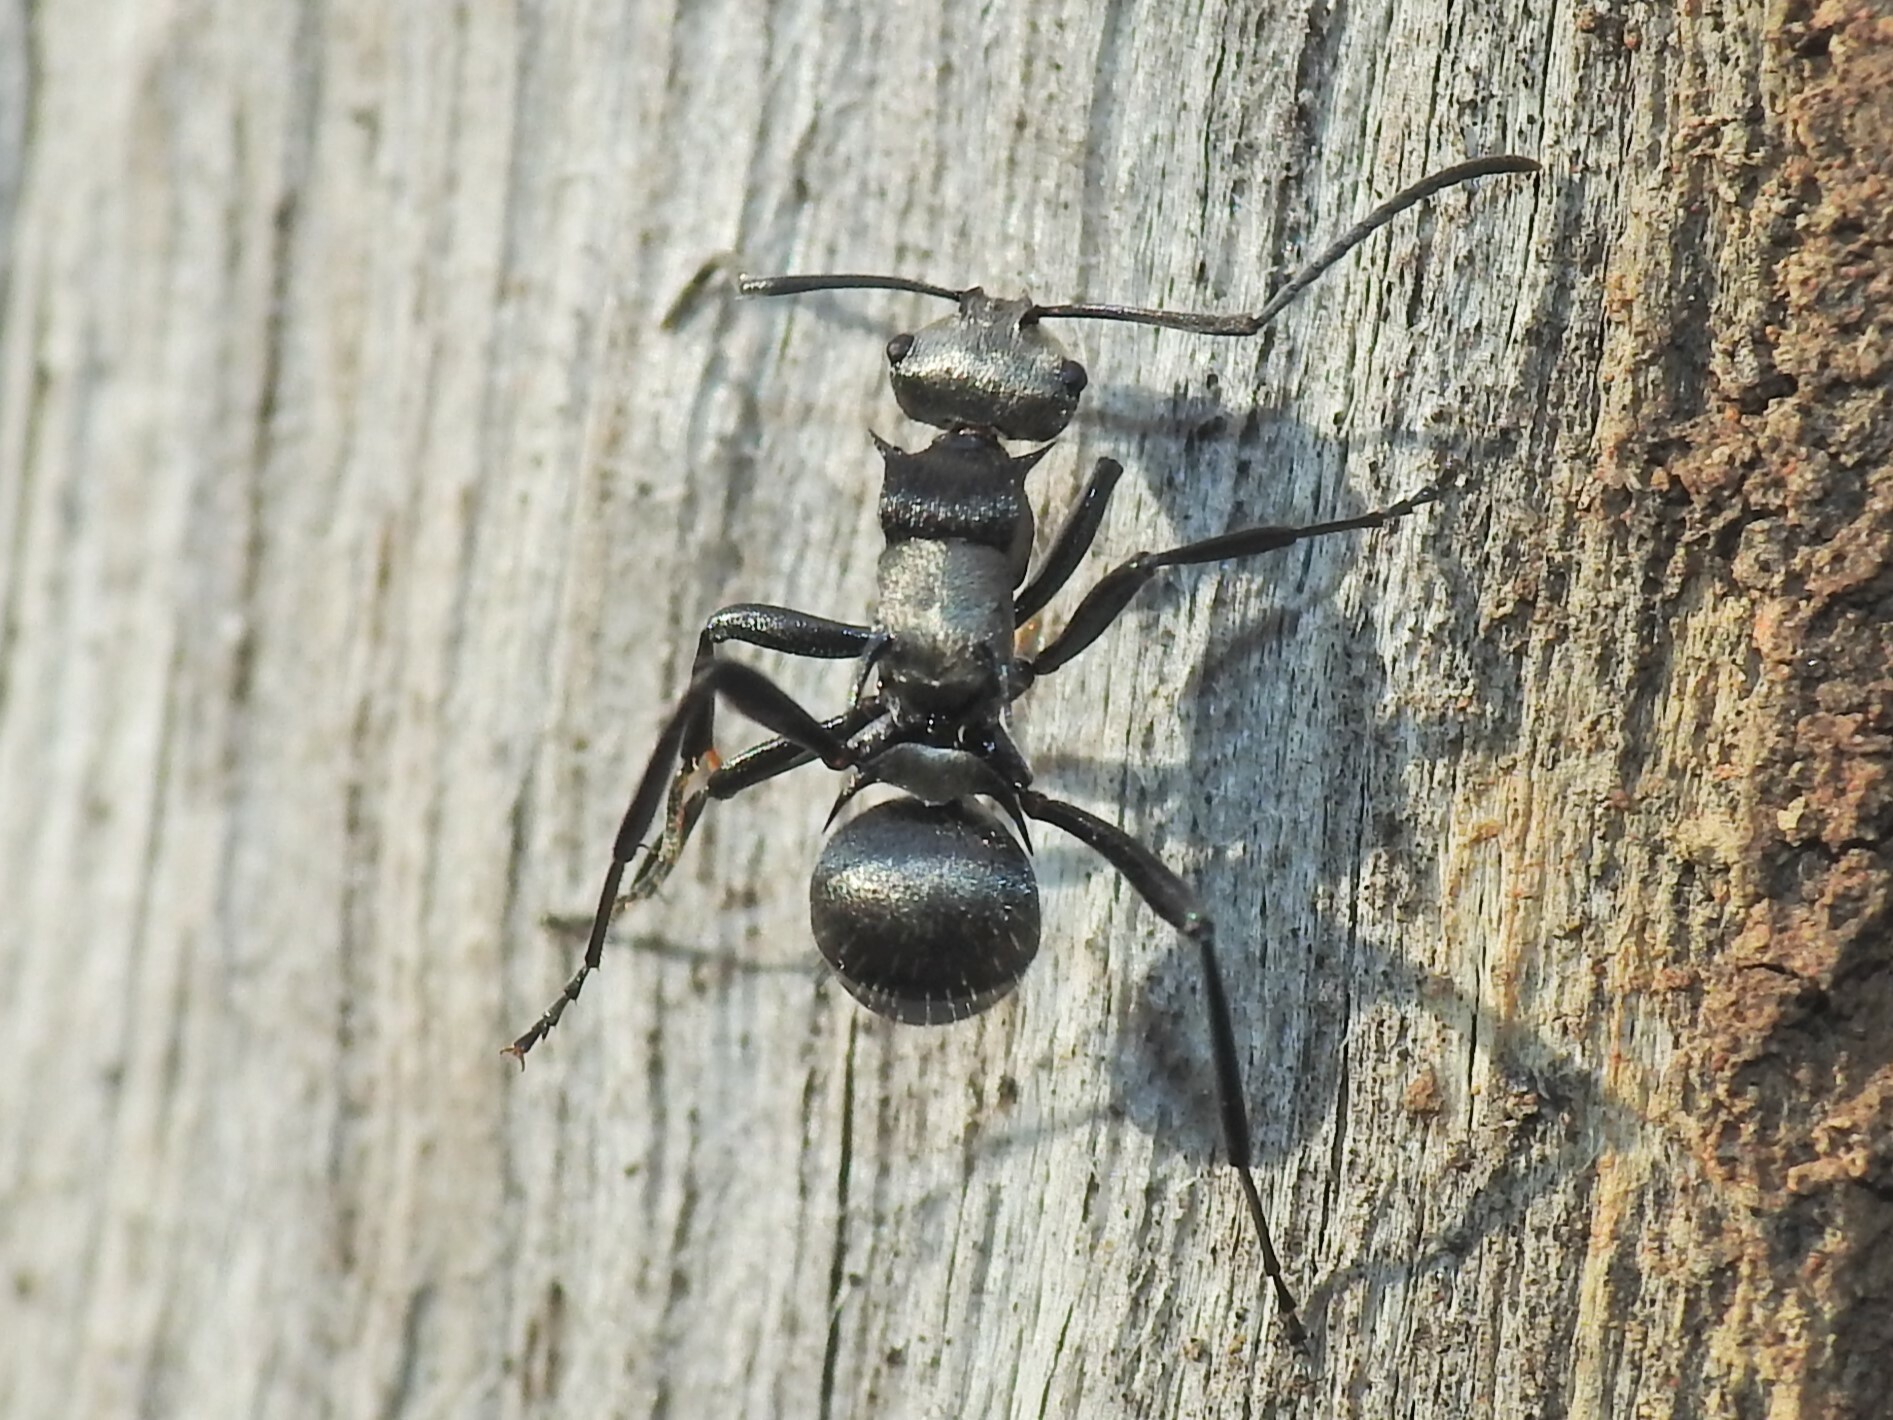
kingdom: Animalia
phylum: Arthropoda
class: Insecta
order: Hymenoptera
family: Formicidae
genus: Polyrhachis
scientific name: Polyrhachis daemeli
